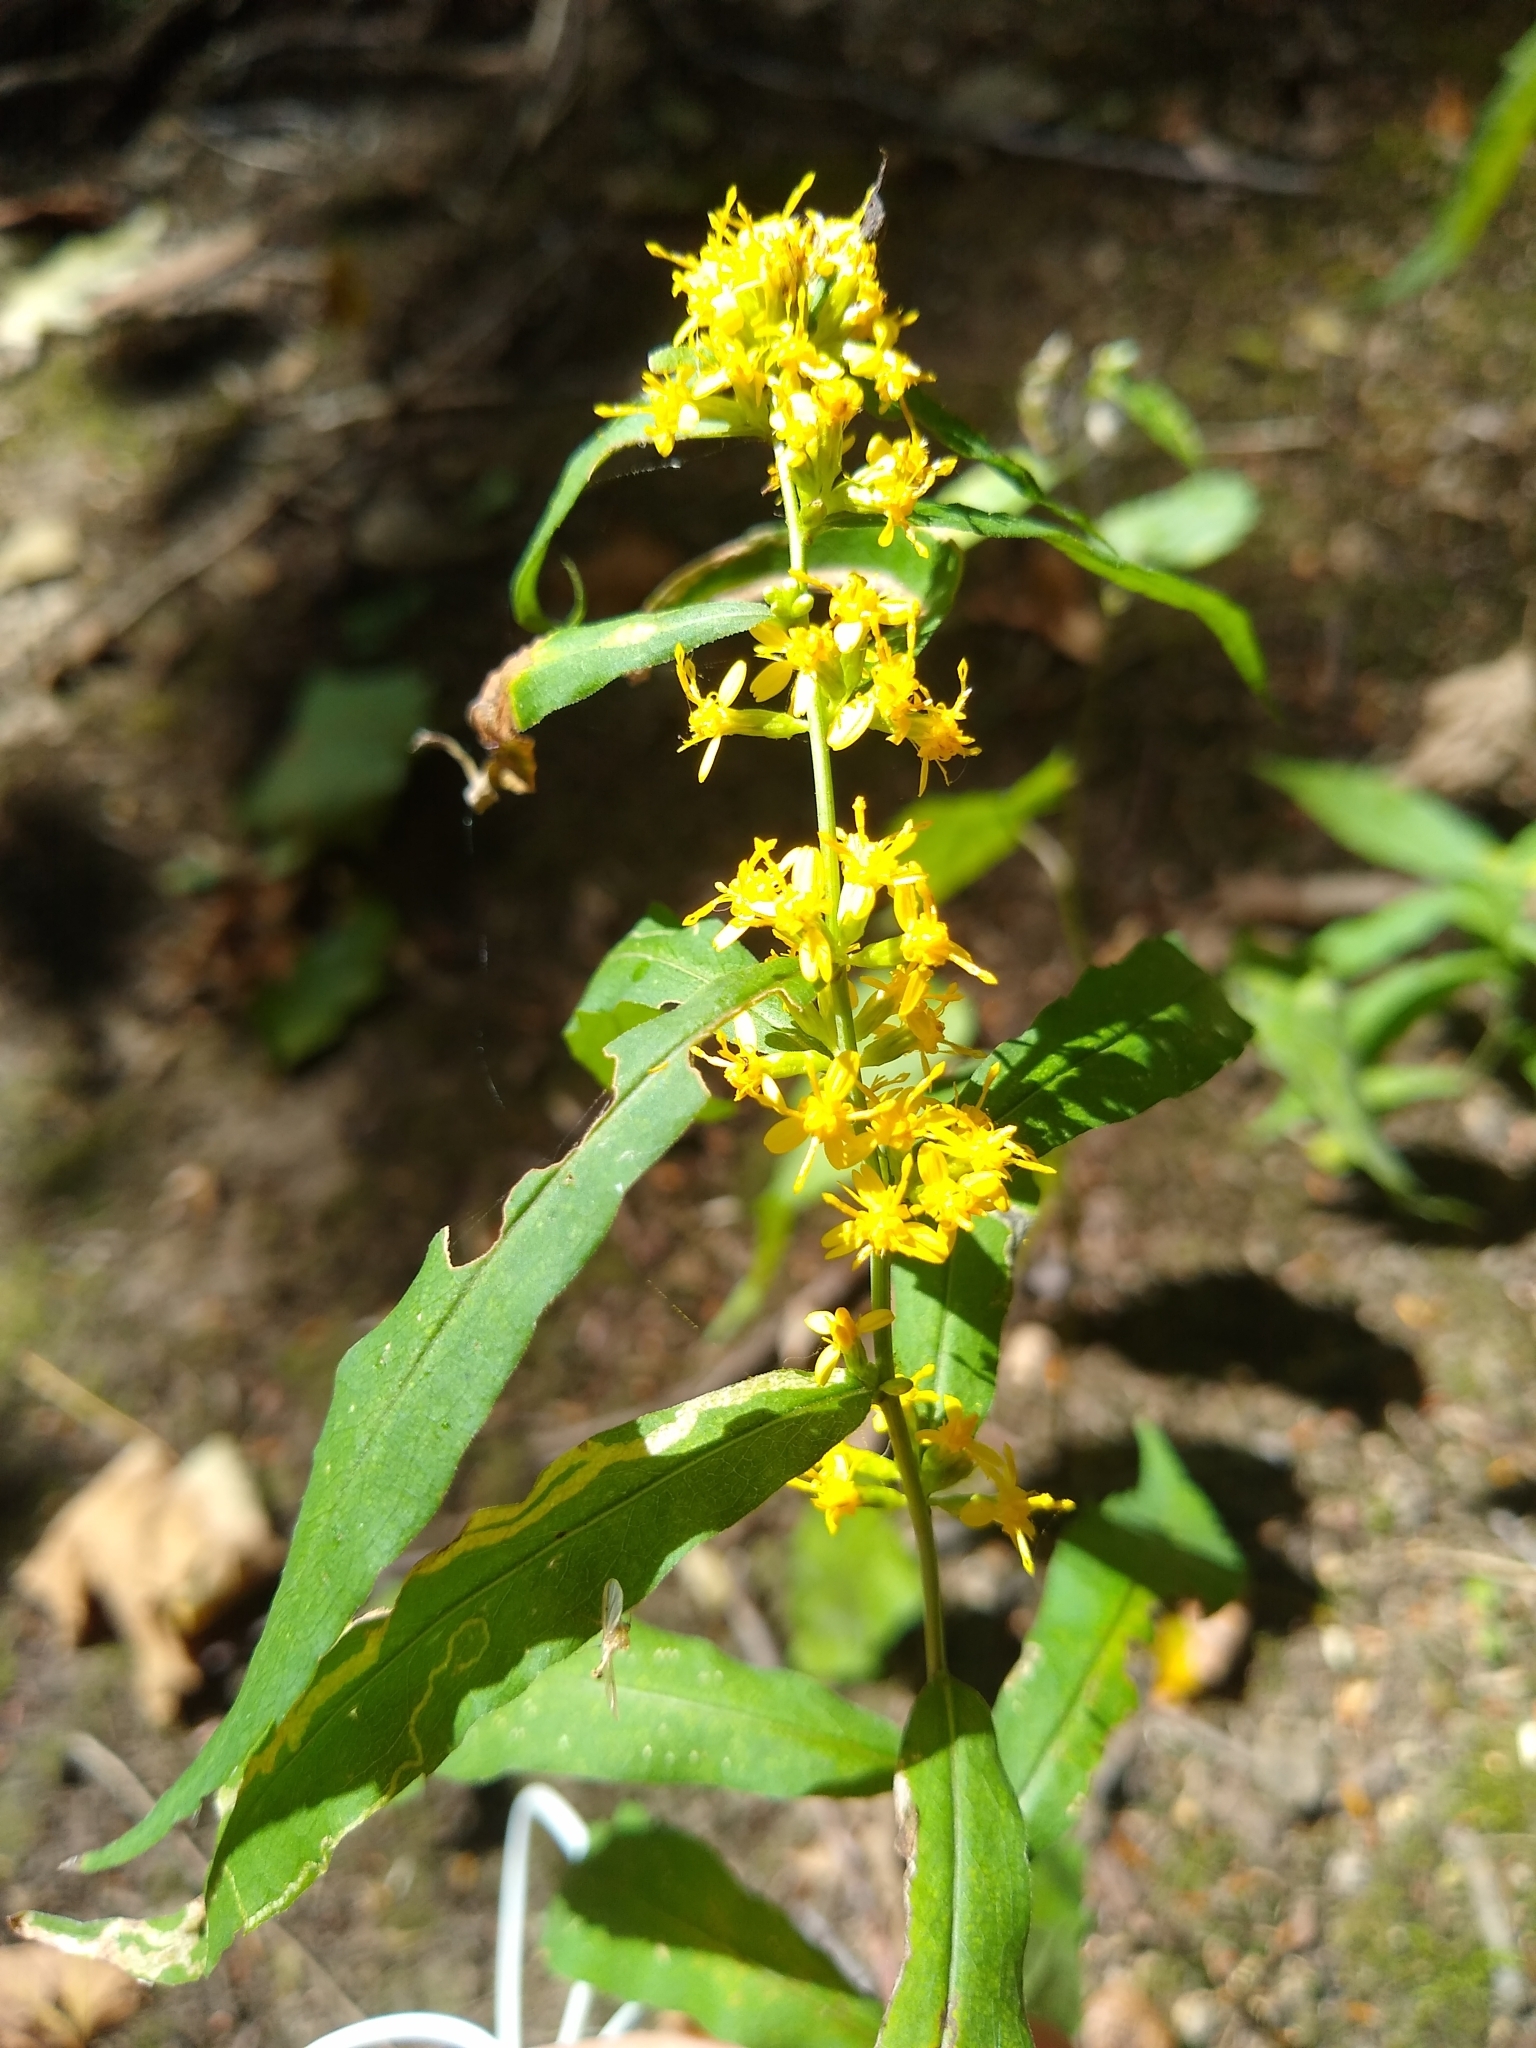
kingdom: Plantae
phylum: Tracheophyta
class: Magnoliopsida
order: Asterales
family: Asteraceae
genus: Solidago
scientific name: Solidago caesia
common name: Woodland goldenrod
